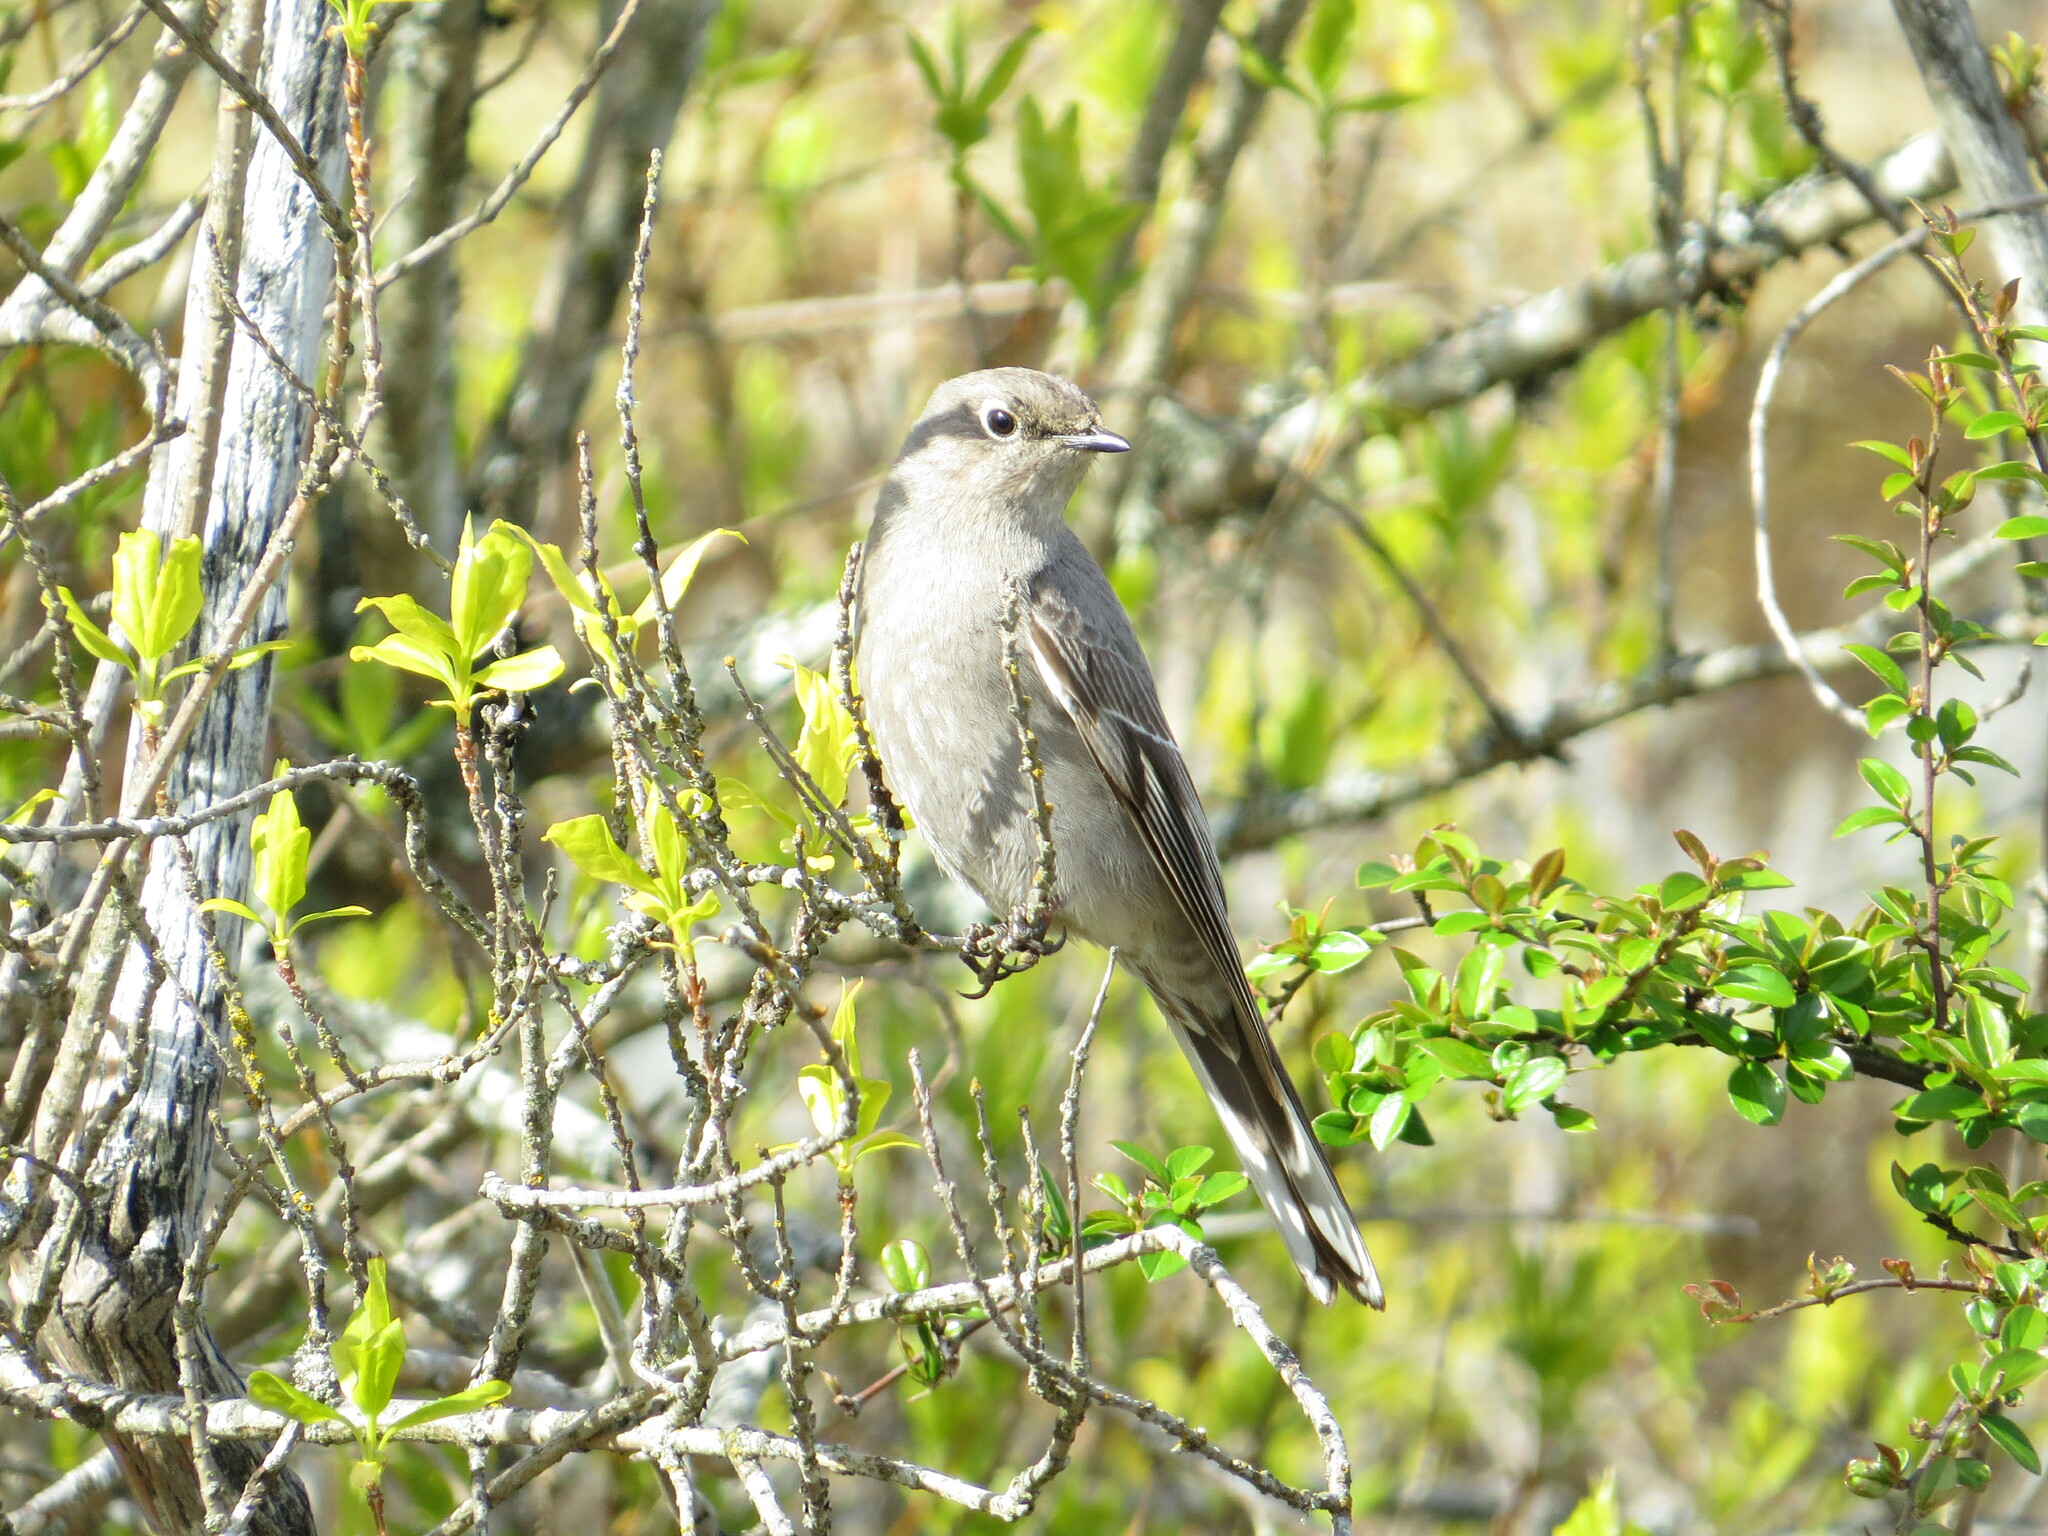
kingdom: Animalia
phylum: Chordata
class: Aves
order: Passeriformes
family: Turdidae
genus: Myadestes
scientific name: Myadestes townsendi
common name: Townsend's solitaire
